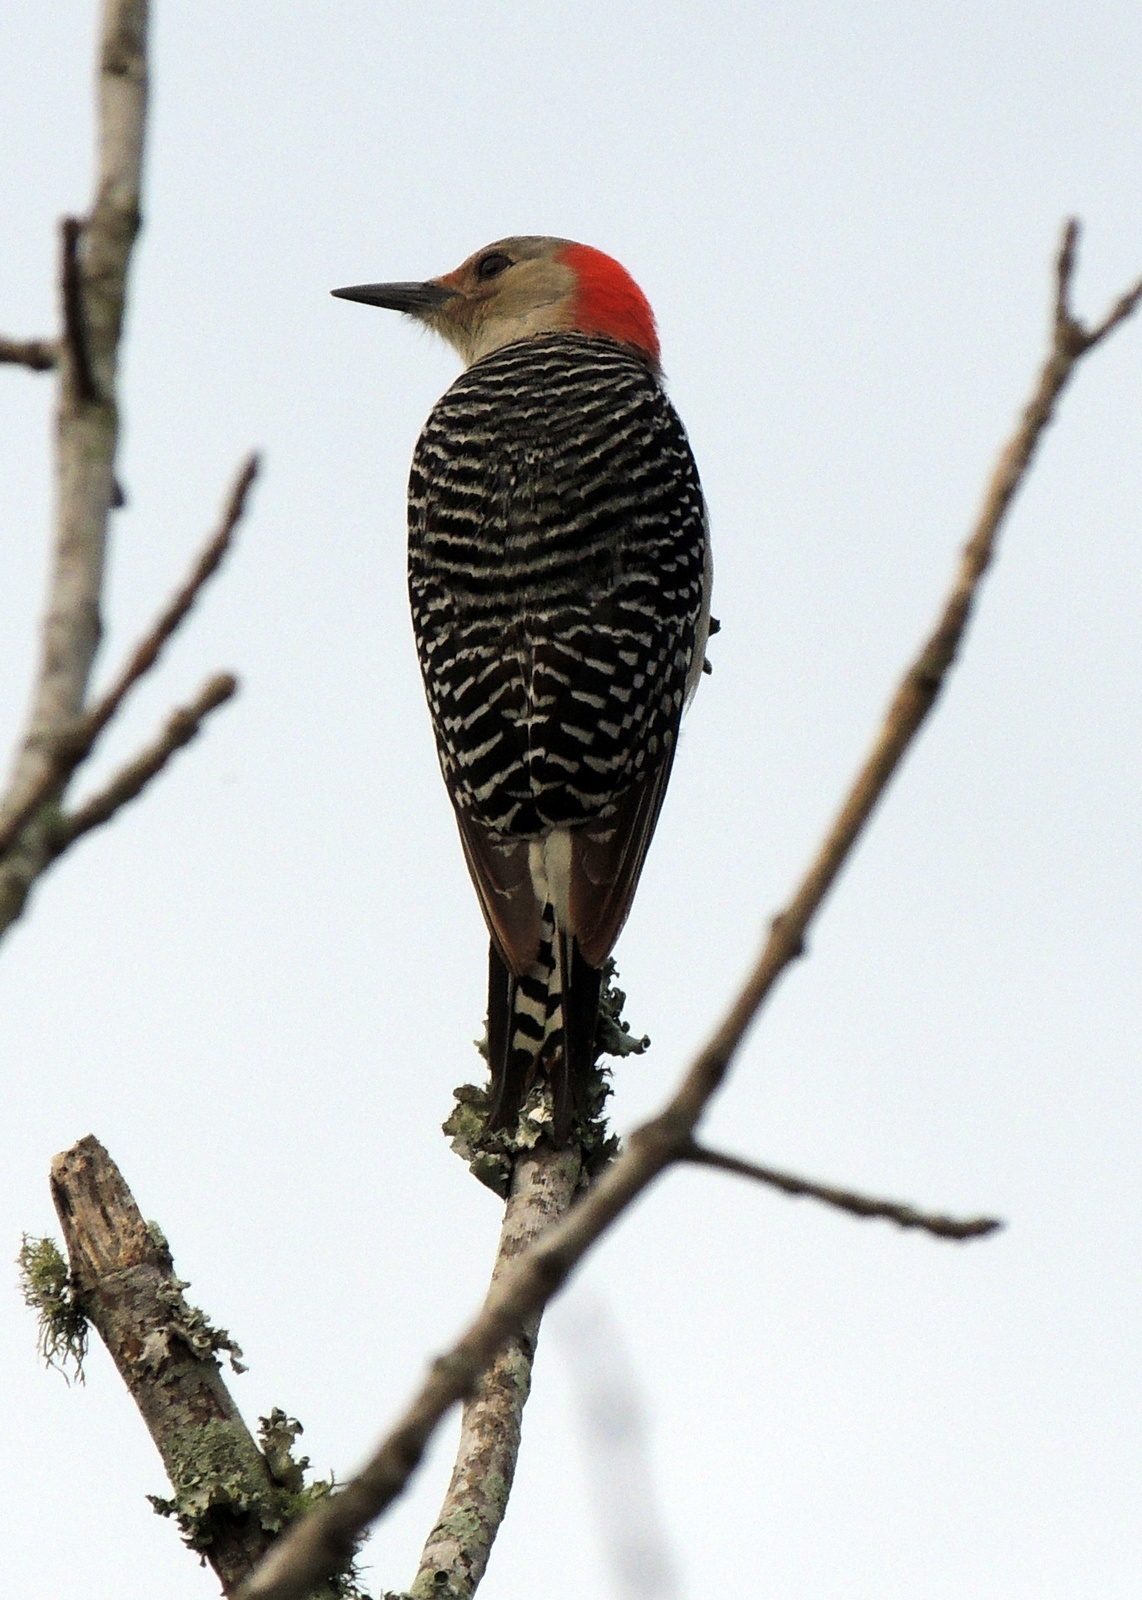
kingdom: Animalia
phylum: Chordata
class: Aves
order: Piciformes
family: Picidae
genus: Melanerpes
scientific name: Melanerpes carolinus
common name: Red-bellied woodpecker
